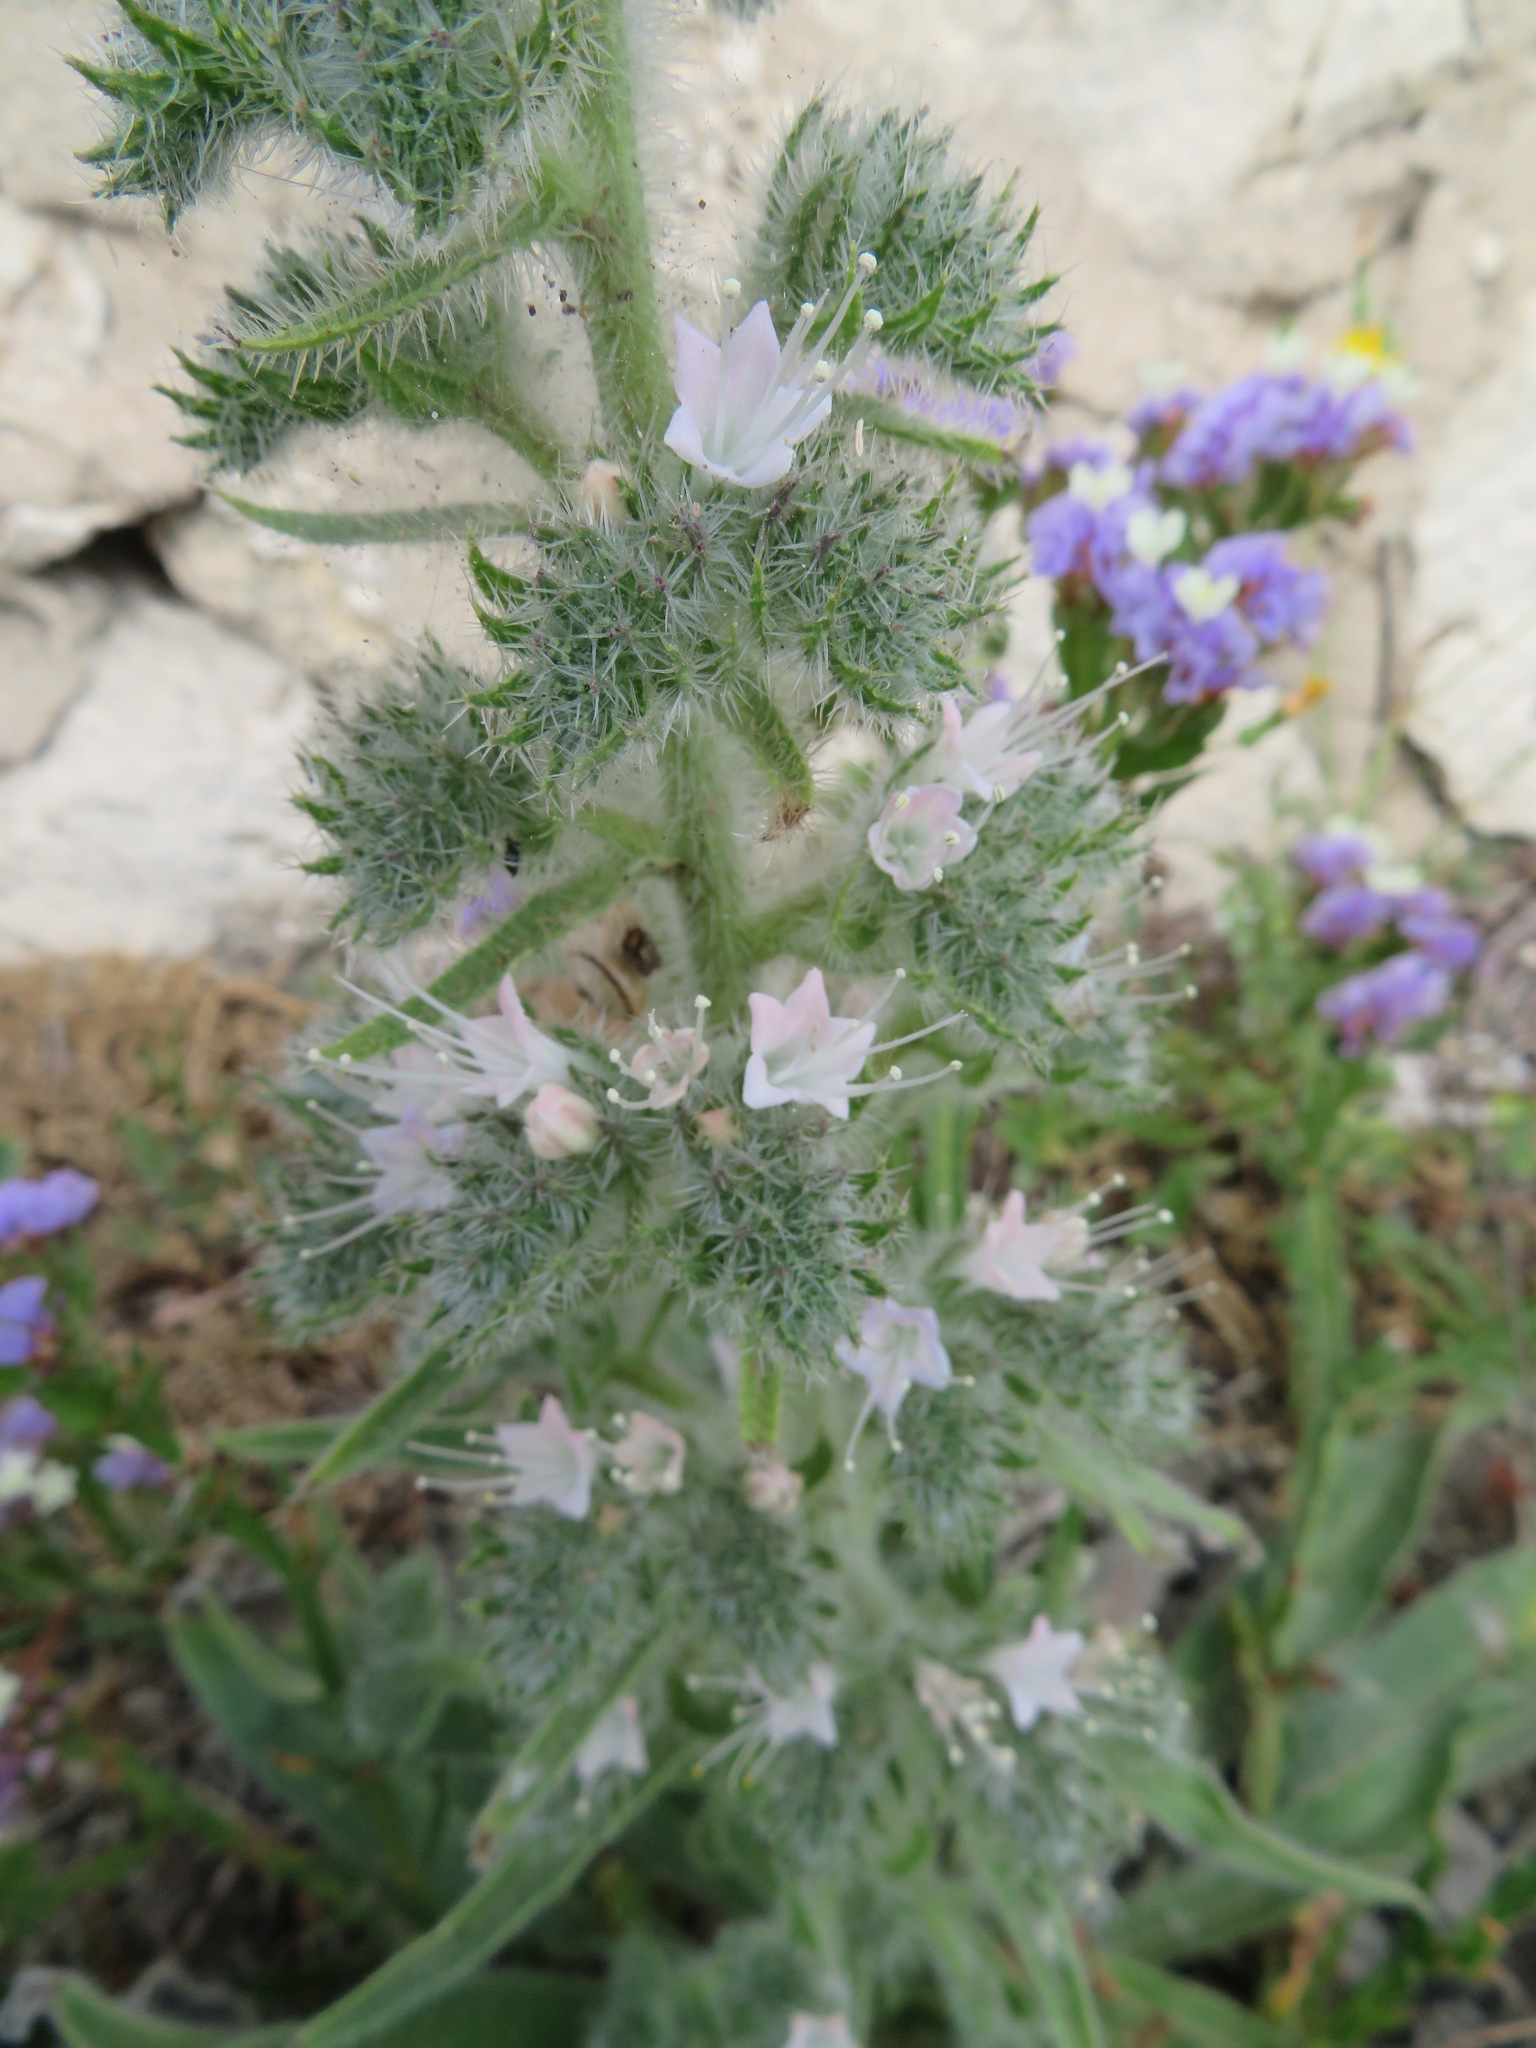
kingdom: Plantae
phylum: Tracheophyta
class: Magnoliopsida
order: Boraginales
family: Boraginaceae
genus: Echium
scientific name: Echium italicum
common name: Italian viper's bugloss
